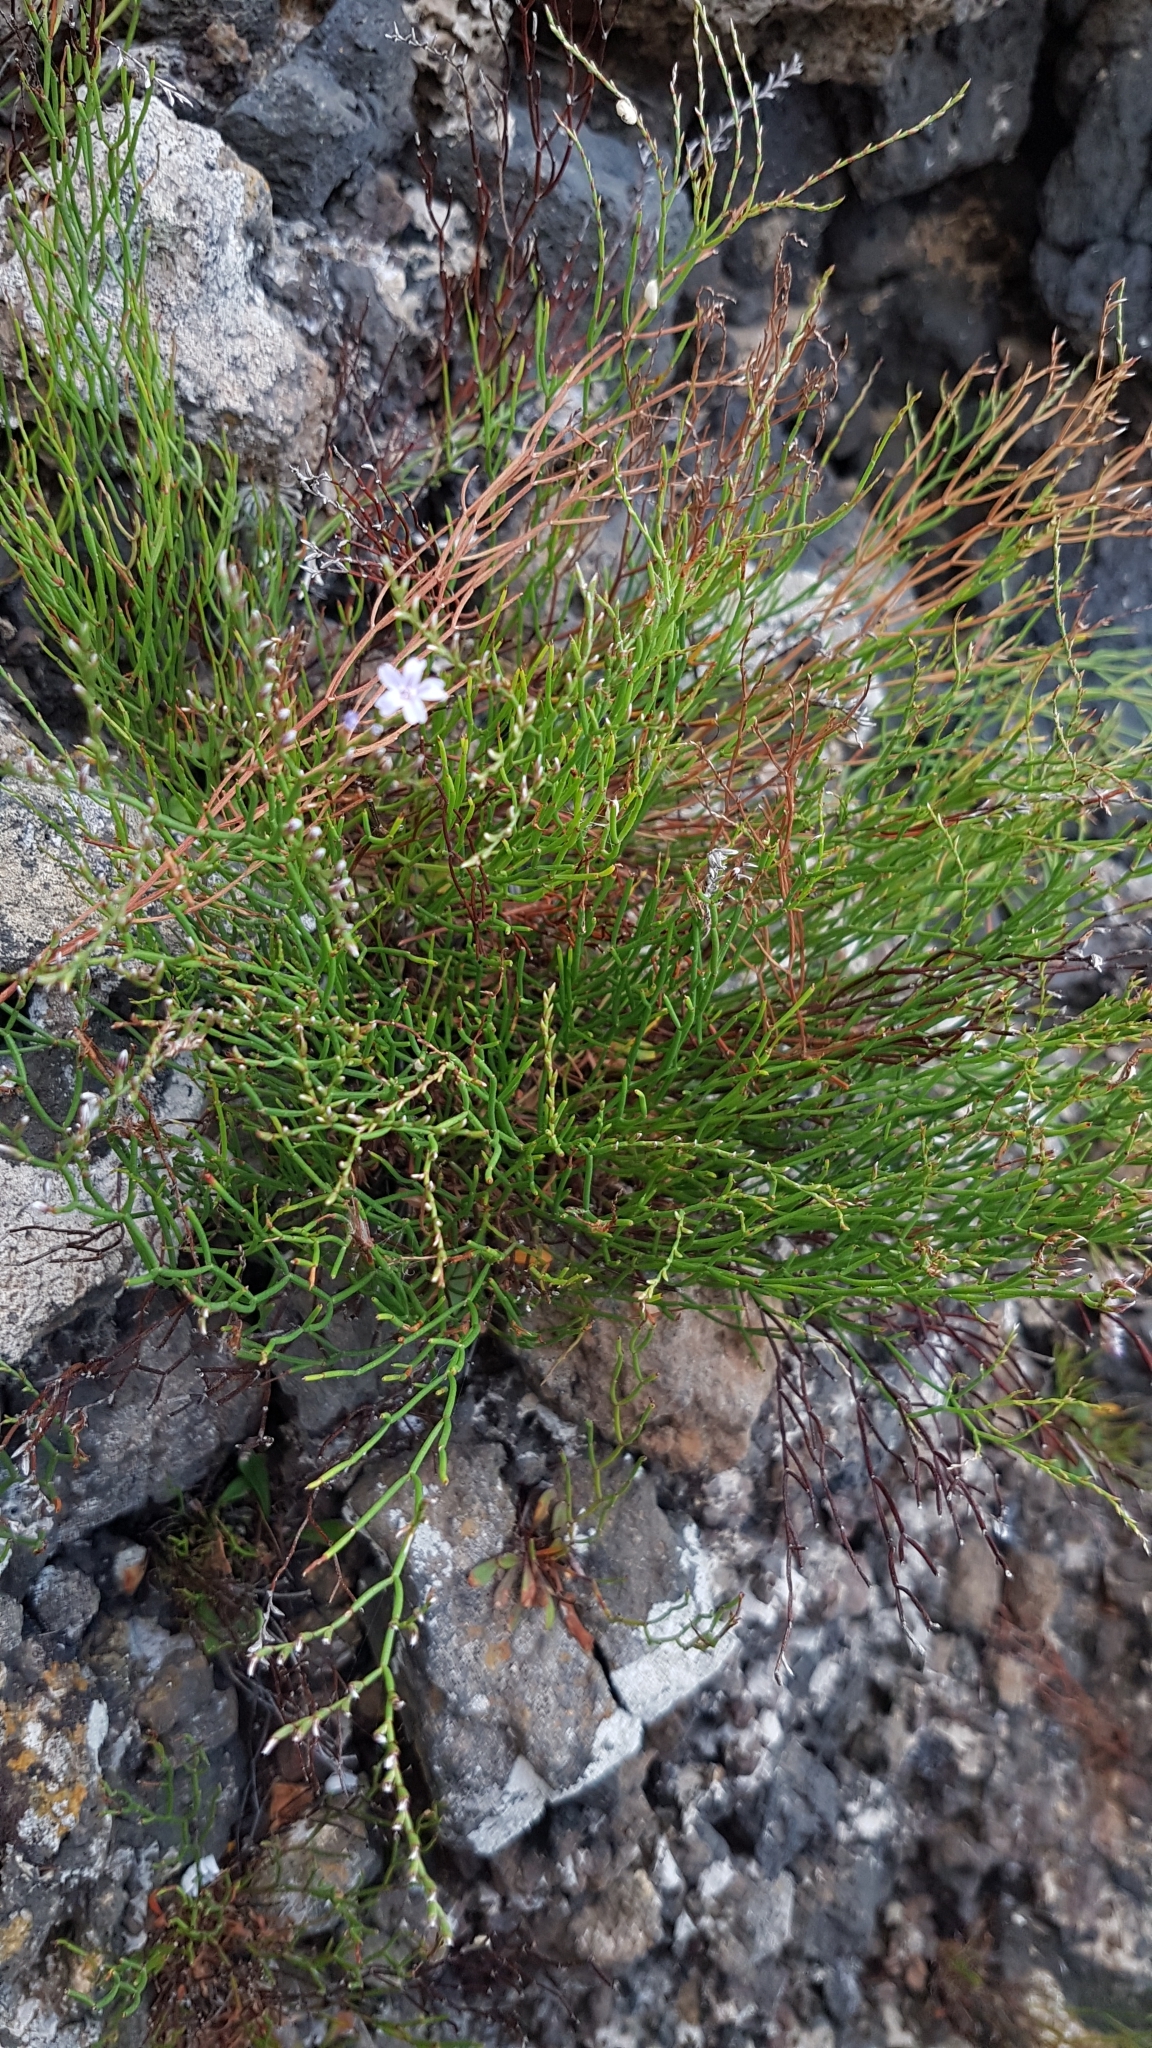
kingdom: Plantae
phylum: Tracheophyta
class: Magnoliopsida
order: Caryophyllales
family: Plumbaginaceae
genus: Limonium
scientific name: Limonium bocconei
